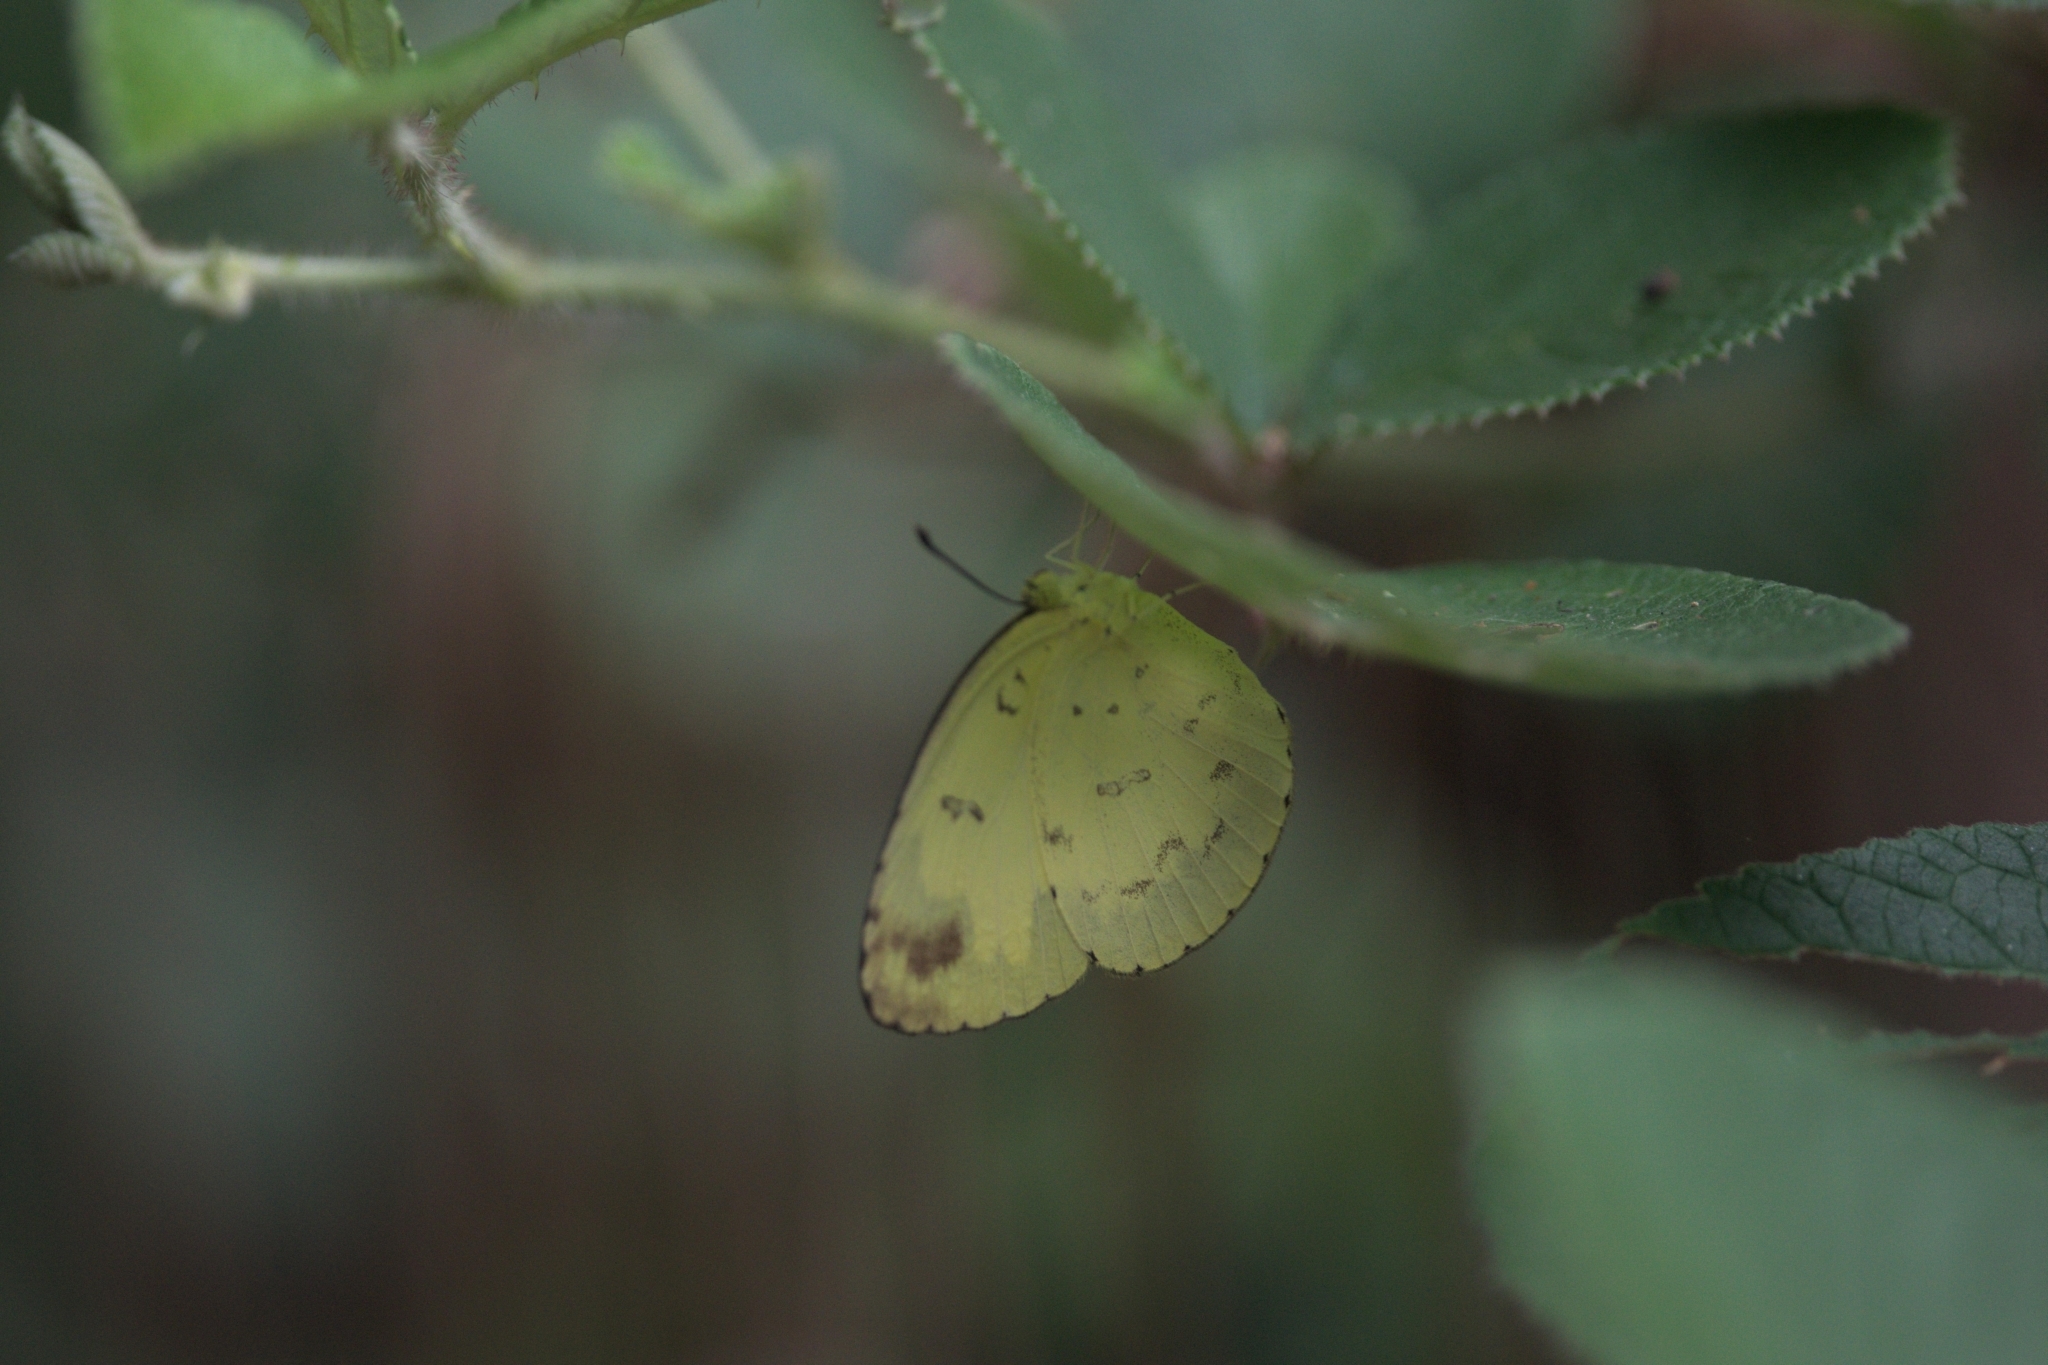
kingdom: Animalia
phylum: Arthropoda
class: Insecta
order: Lepidoptera
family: Pieridae
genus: Eurema
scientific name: Eurema blanda
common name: Three-spot grass yellow
